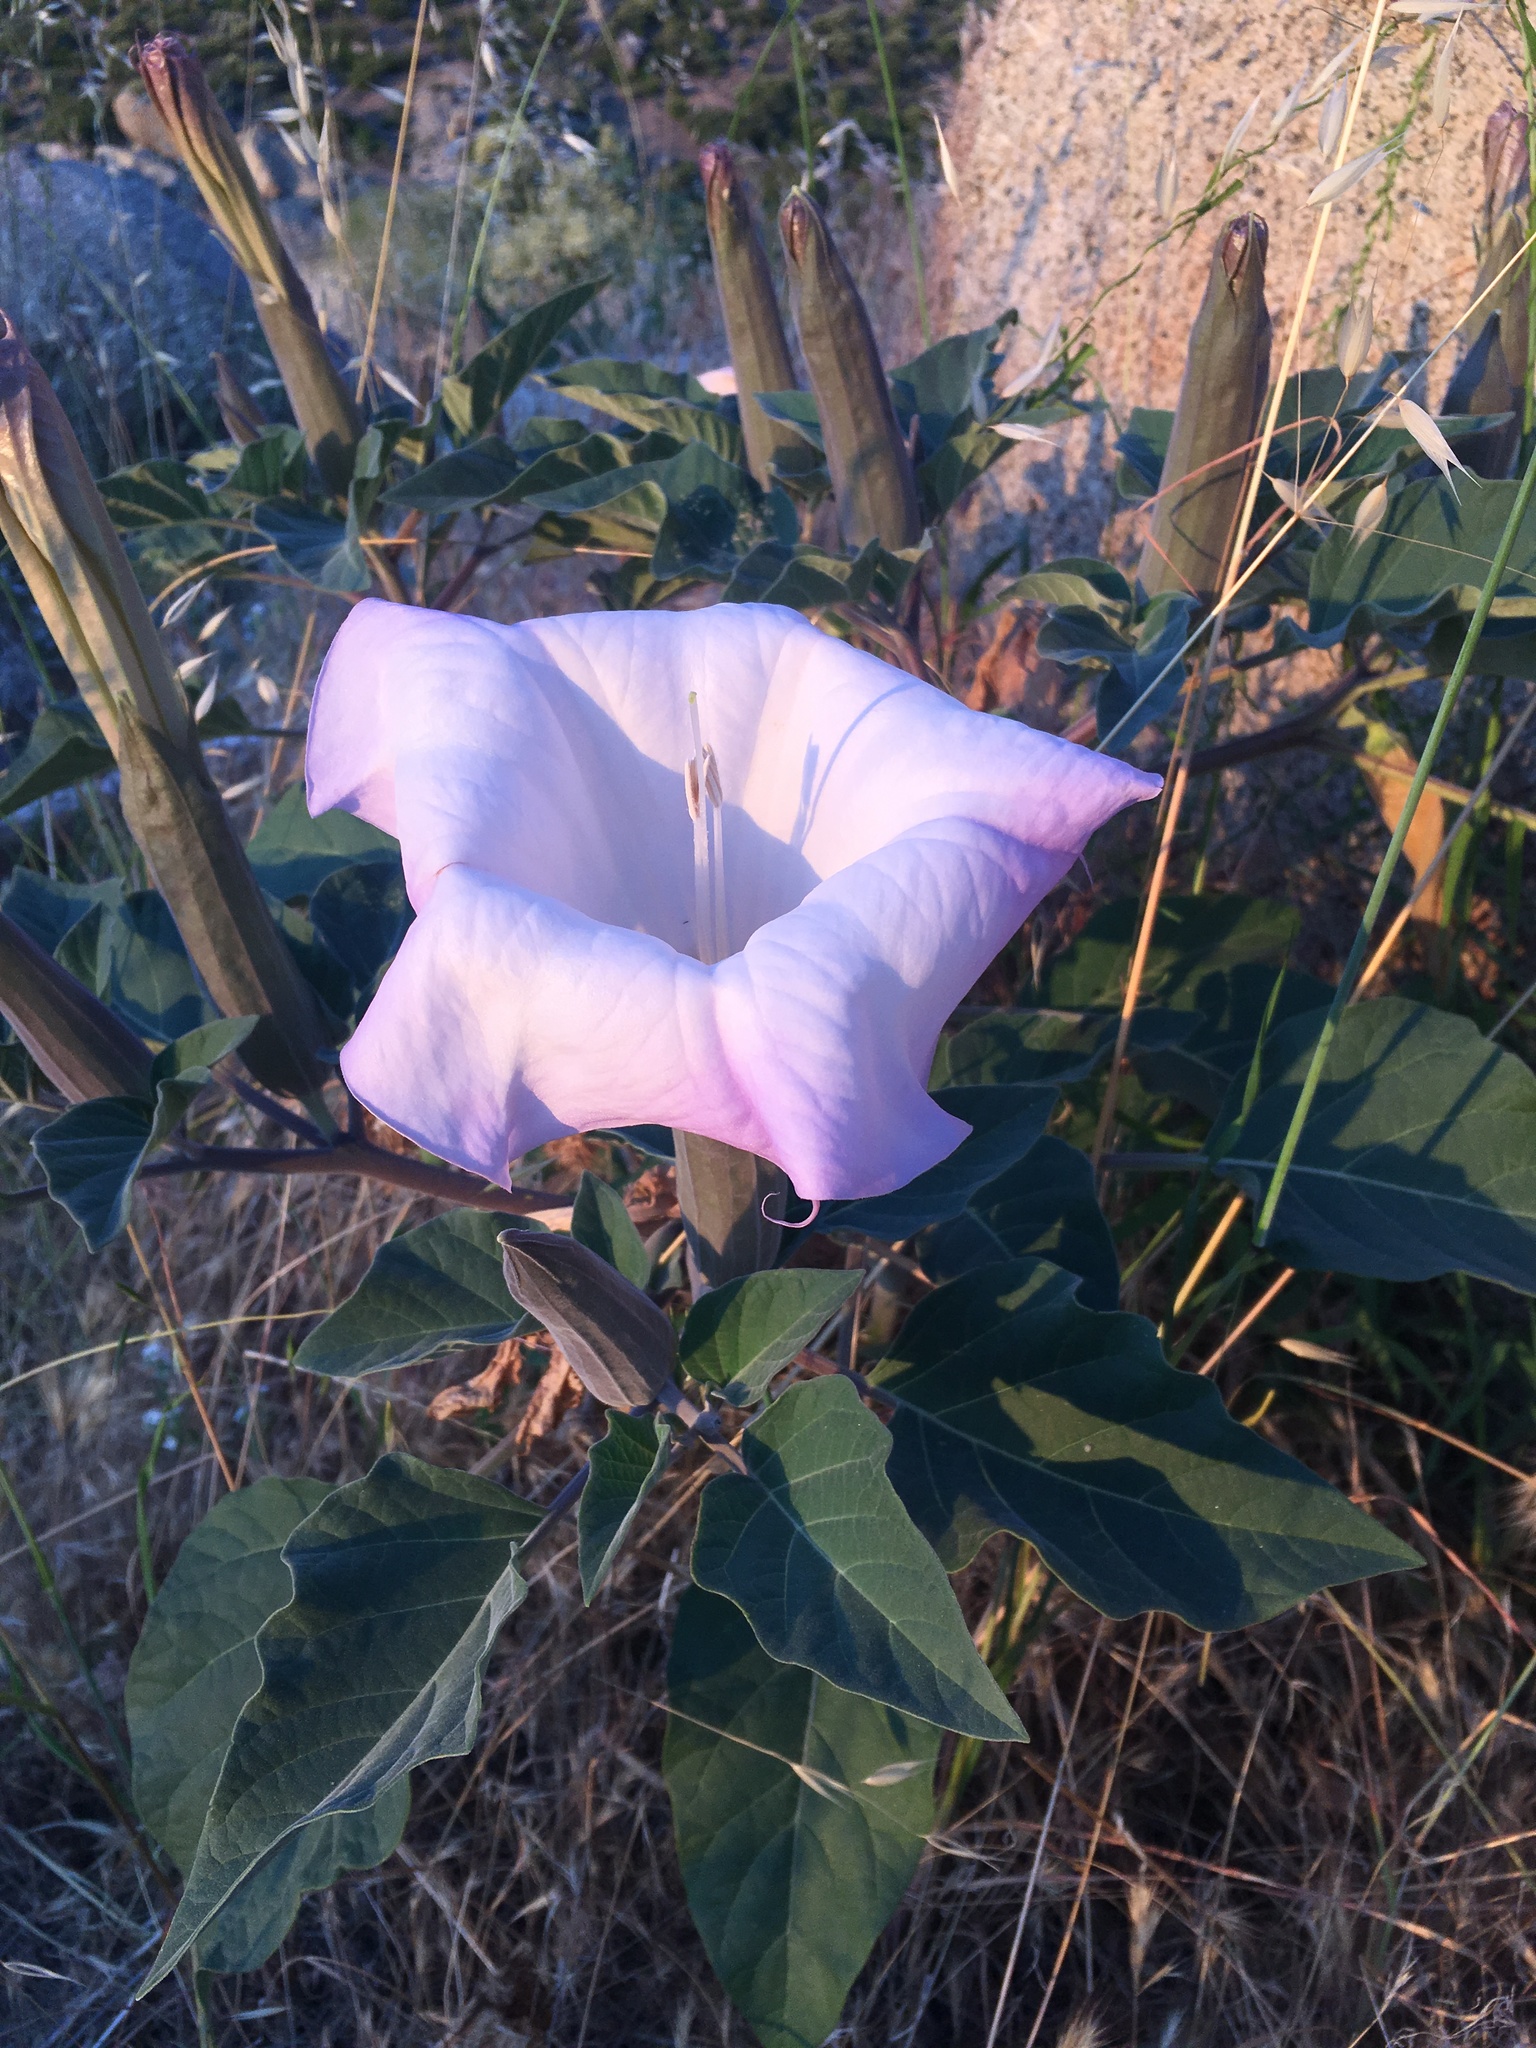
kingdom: Plantae
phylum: Tracheophyta
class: Magnoliopsida
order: Solanales
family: Solanaceae
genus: Datura
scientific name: Datura wrightii
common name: Sacred thorn-apple
